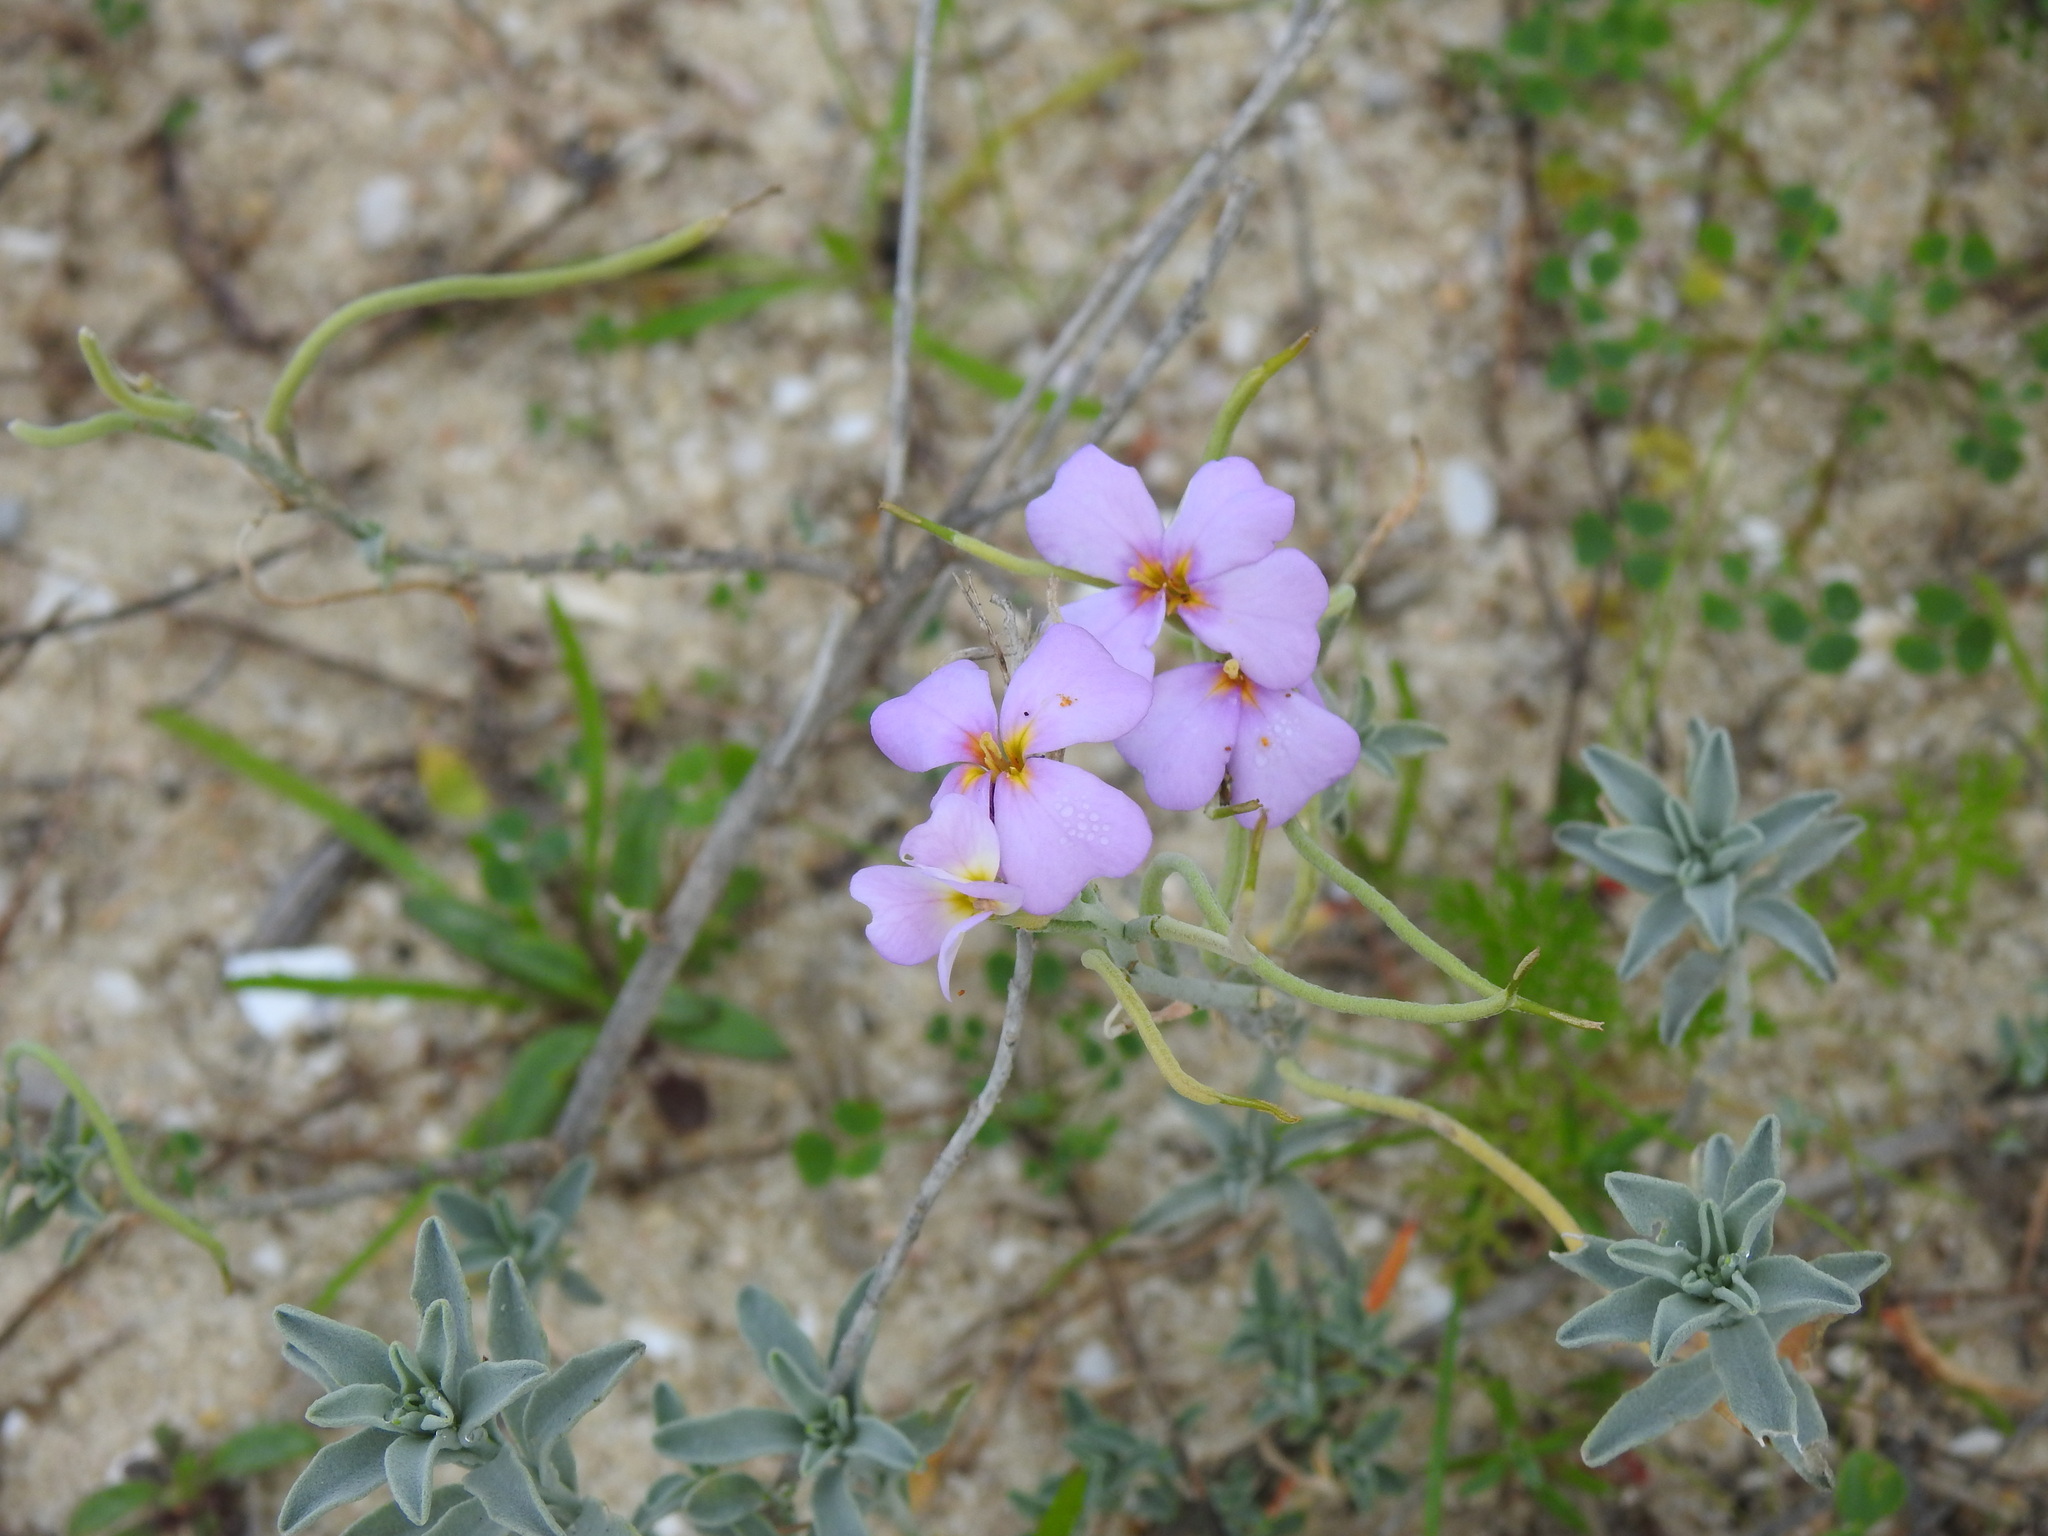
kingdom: Plantae
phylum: Tracheophyta
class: Magnoliopsida
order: Brassicales
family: Brassicaceae
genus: Marcuskochia
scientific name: Marcuskochia littorea
